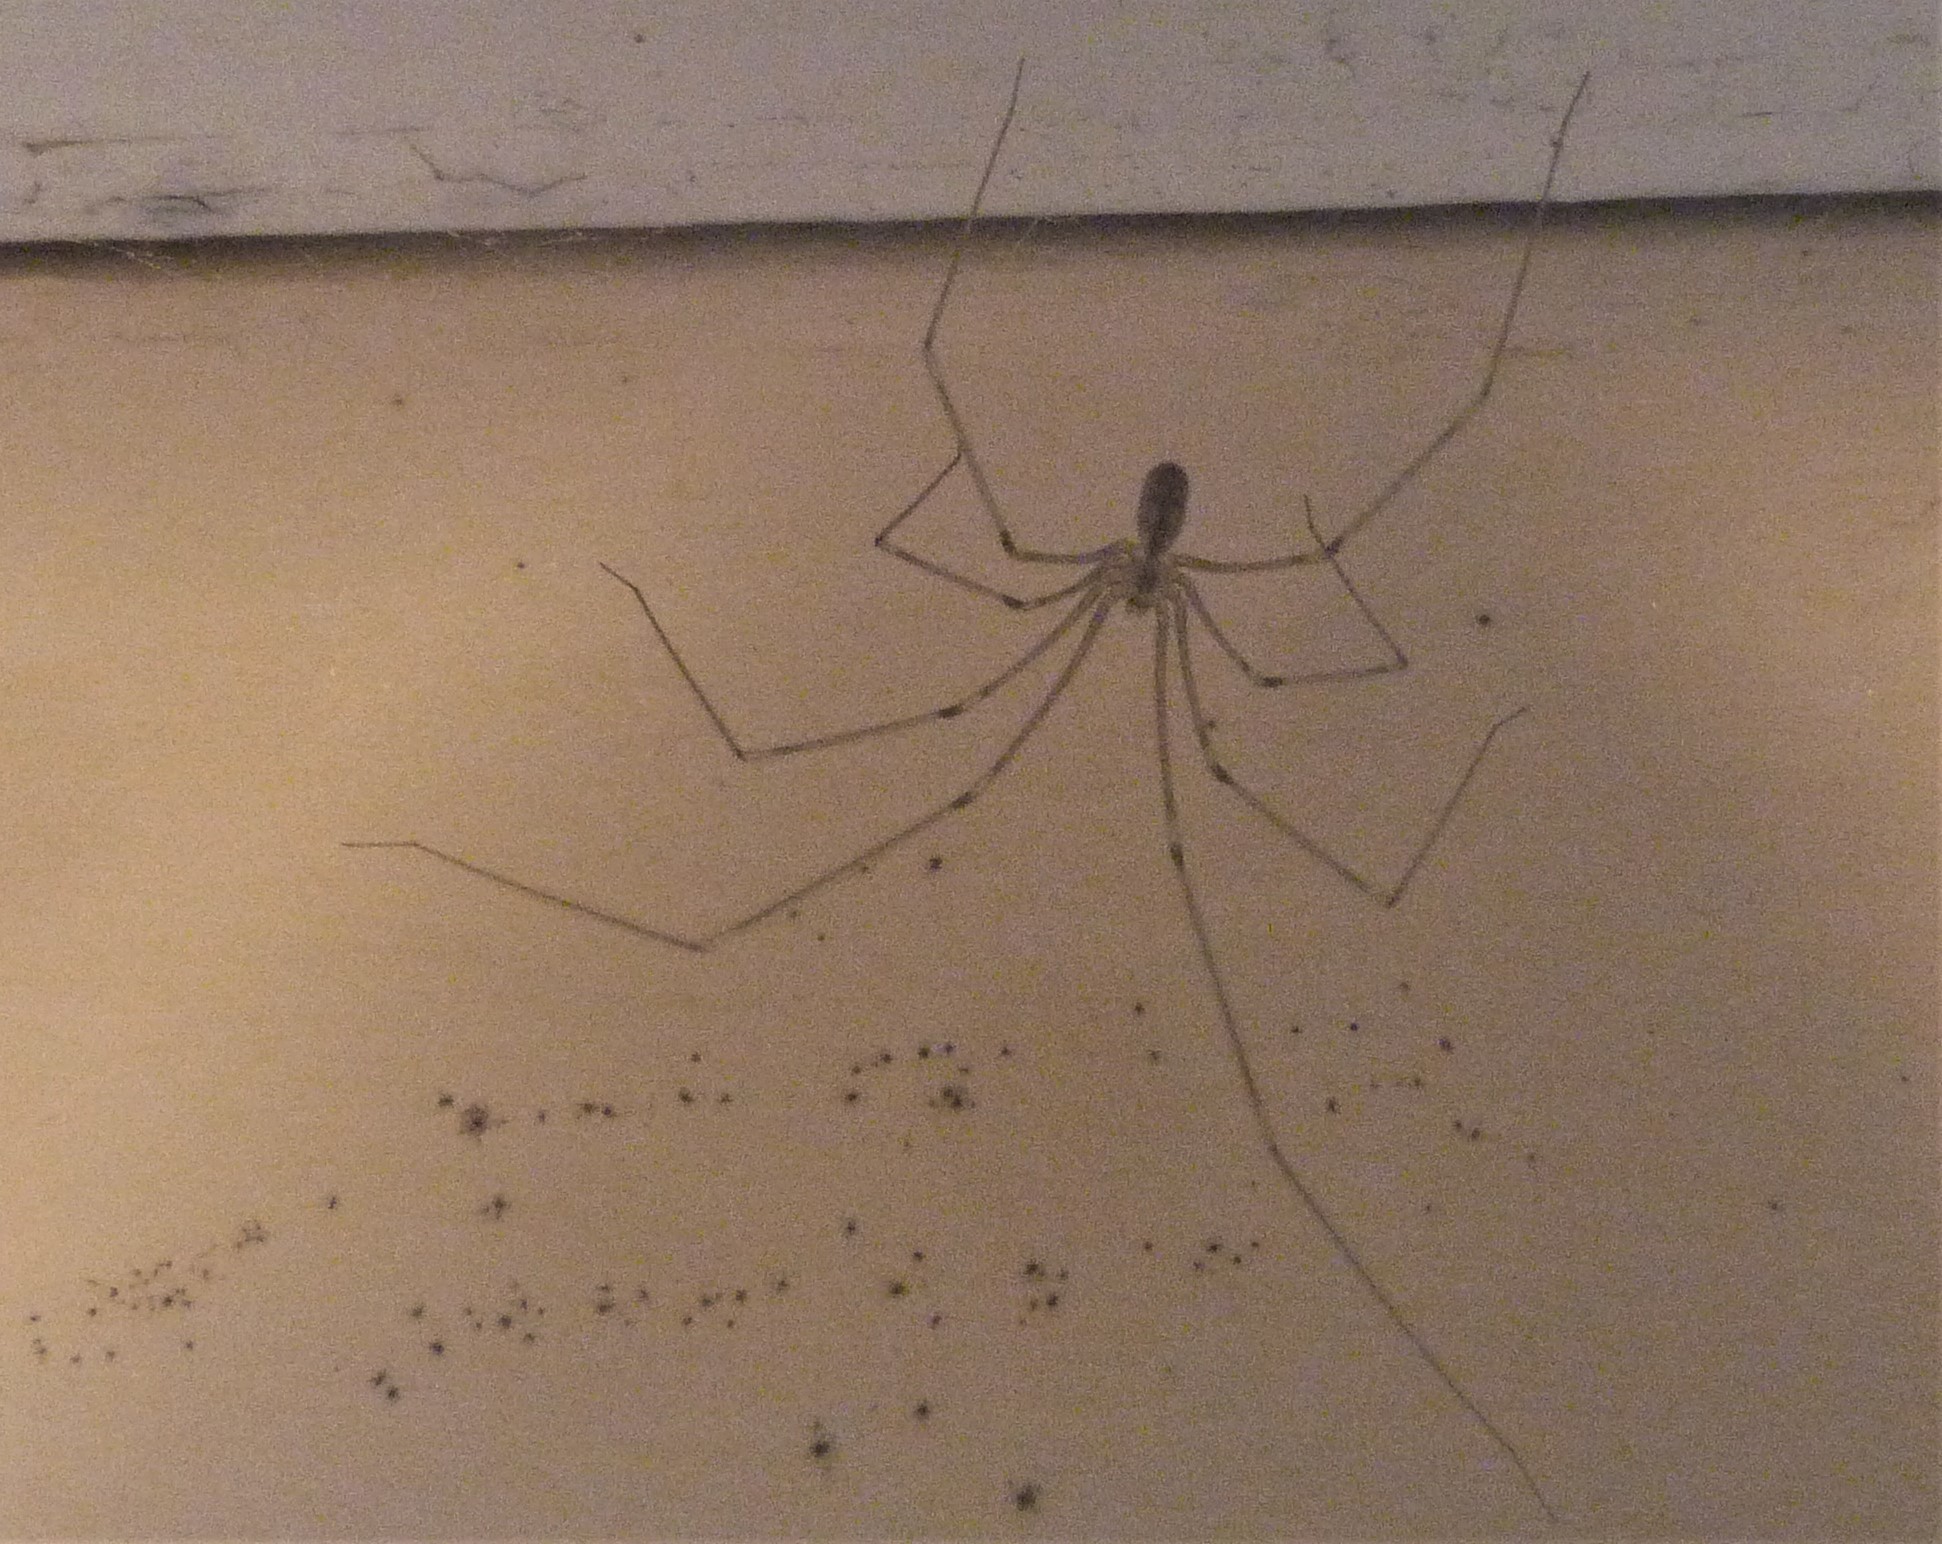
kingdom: Animalia
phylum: Arthropoda
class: Arachnida
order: Araneae
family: Pholcidae
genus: Pholcus
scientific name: Pholcus phalangioides
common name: Longbodied cellar spider
